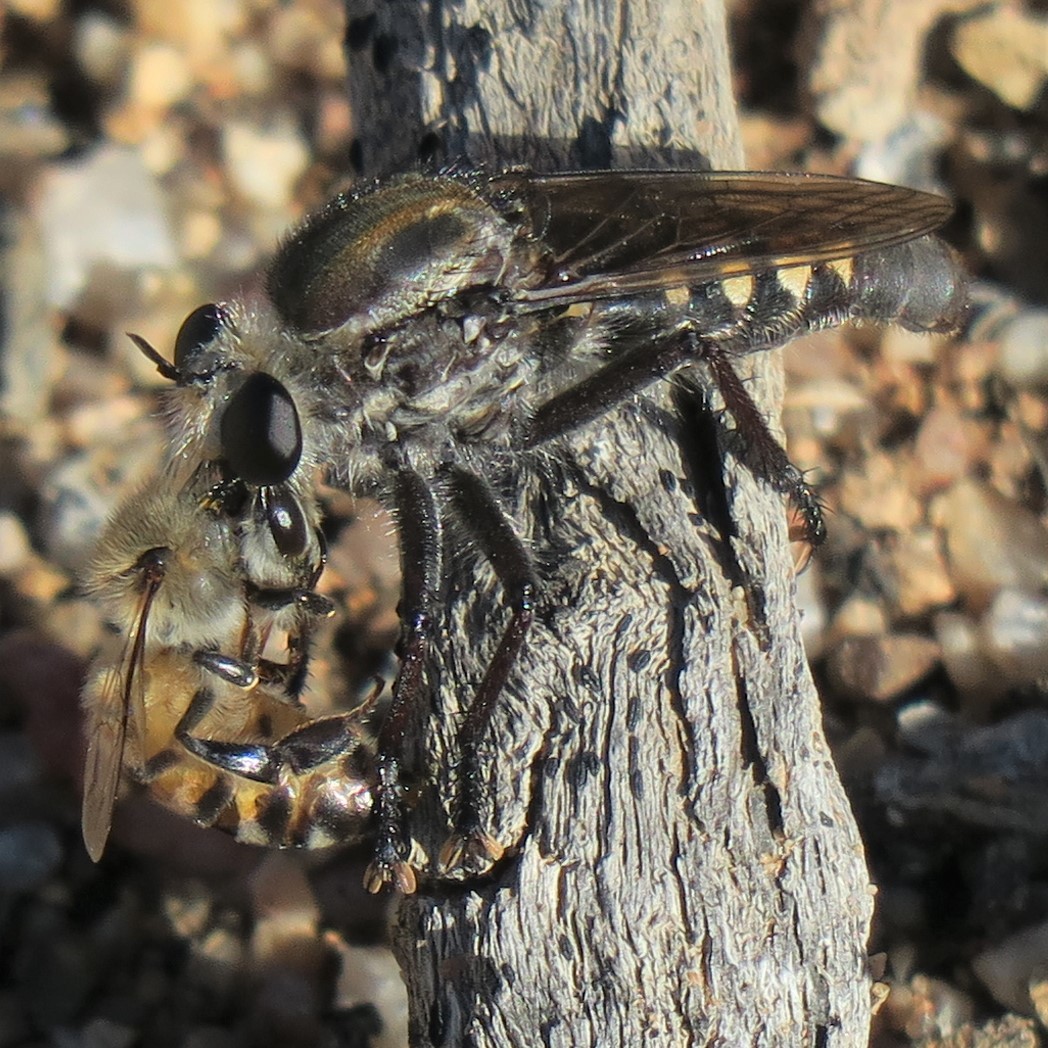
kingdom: Animalia
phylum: Arthropoda
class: Insecta
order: Hymenoptera
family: Apidae
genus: Apis
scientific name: Apis mellifera
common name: Honey bee
